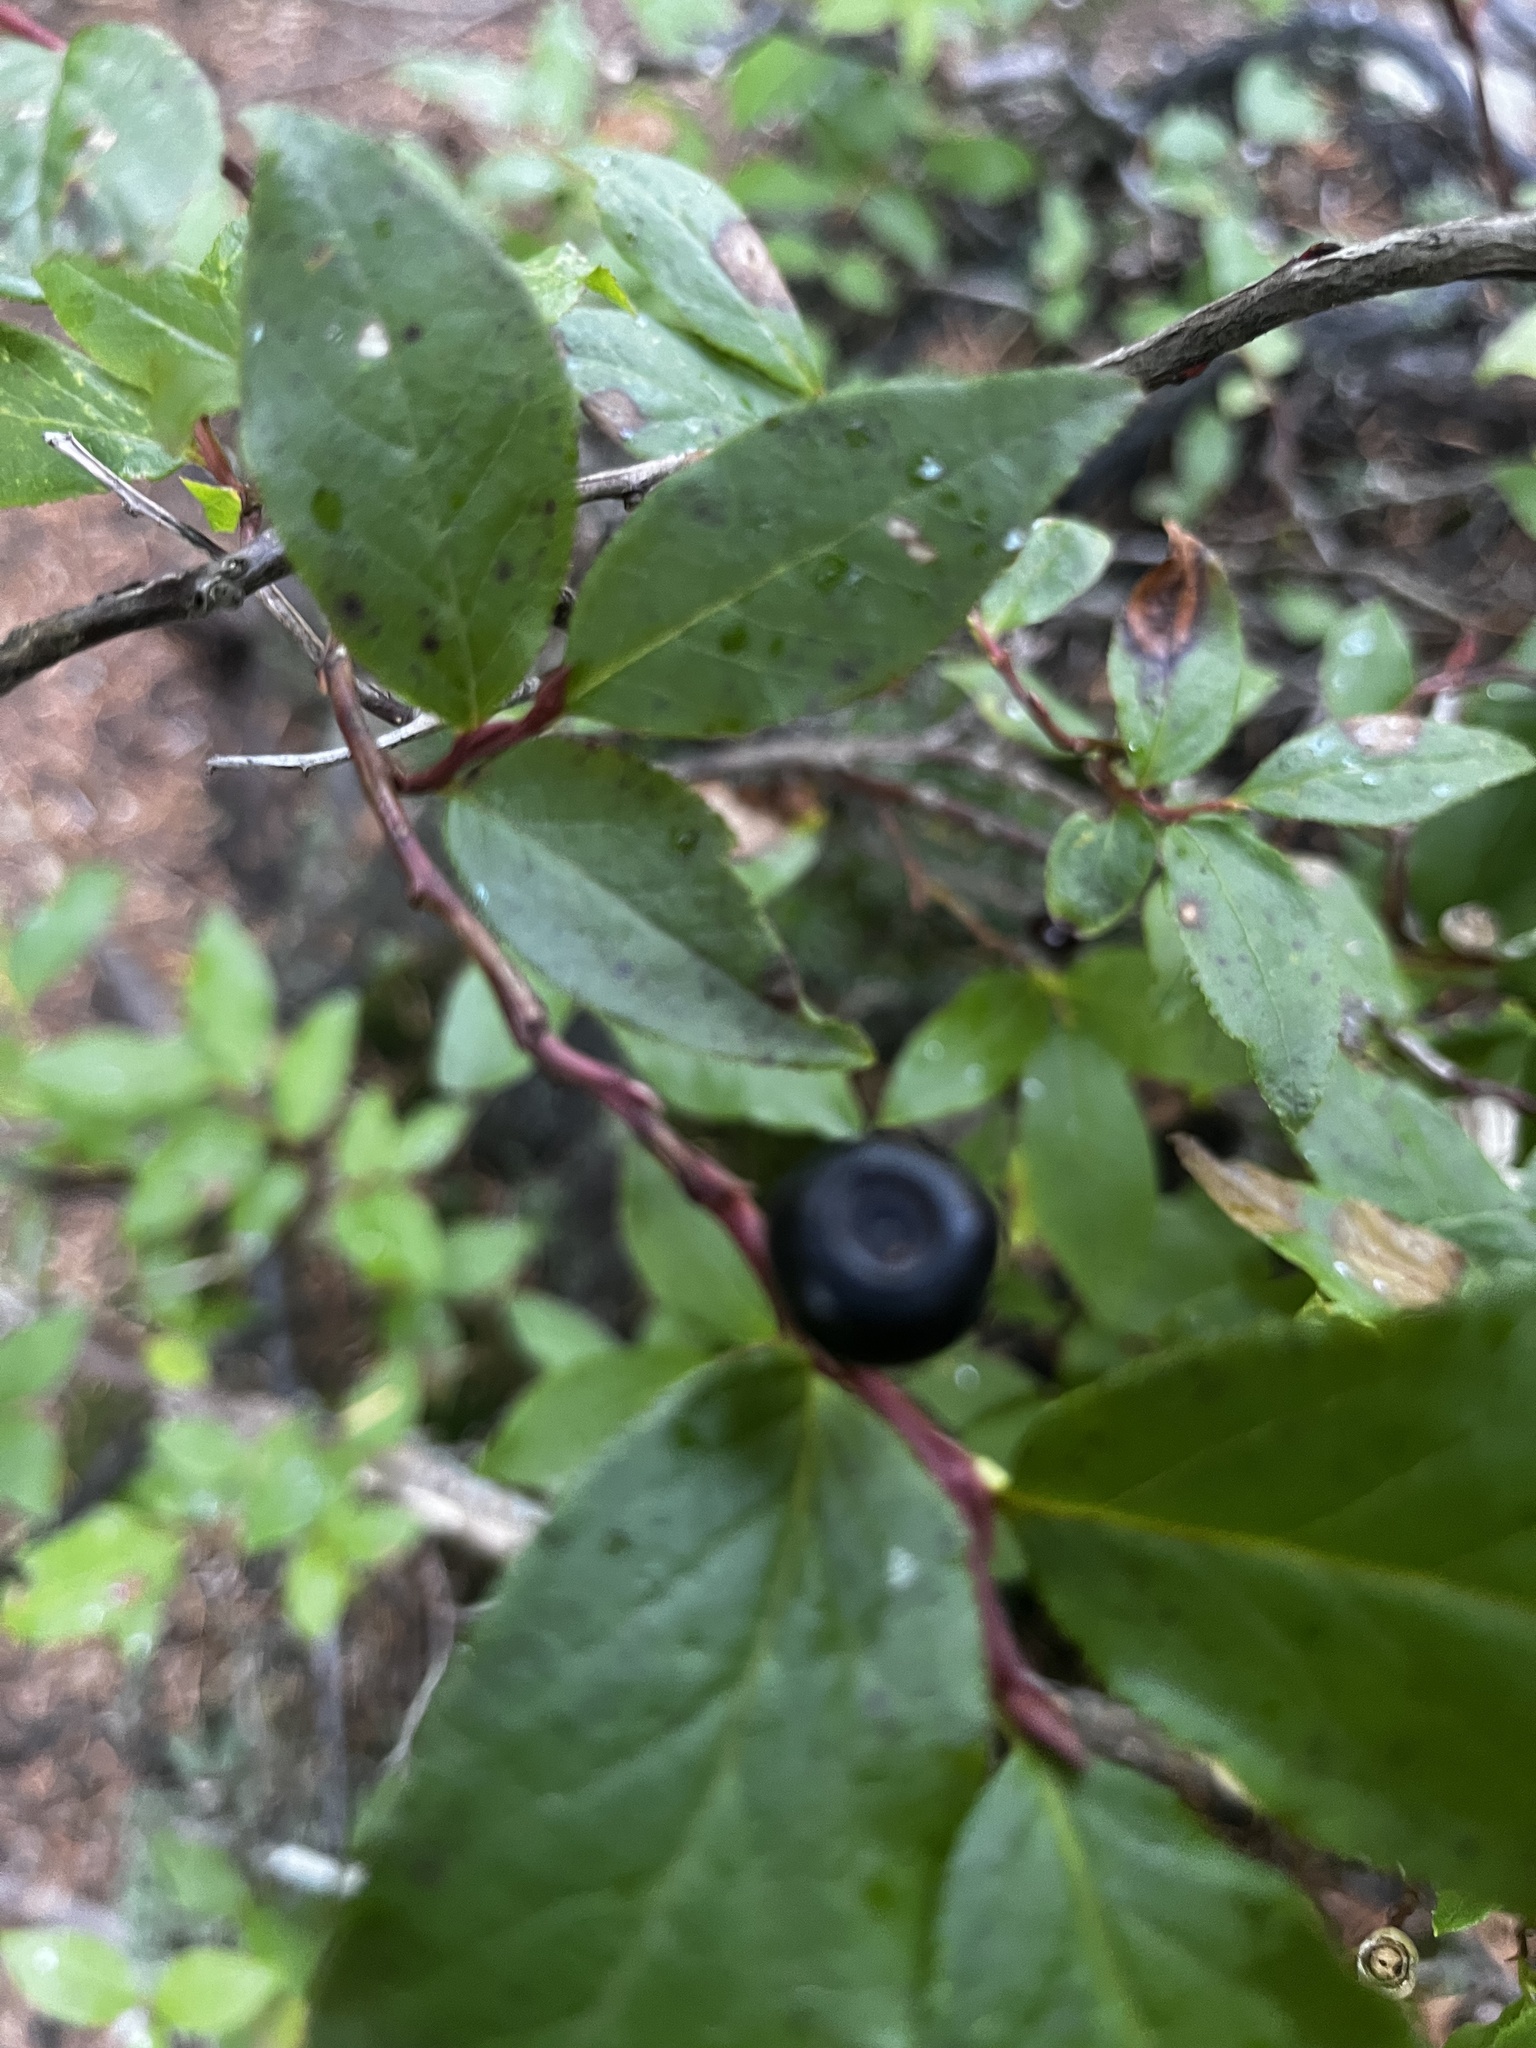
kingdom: Plantae
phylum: Tracheophyta
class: Magnoliopsida
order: Ericales
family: Ericaceae
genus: Vaccinium
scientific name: Vaccinium membranaceum
